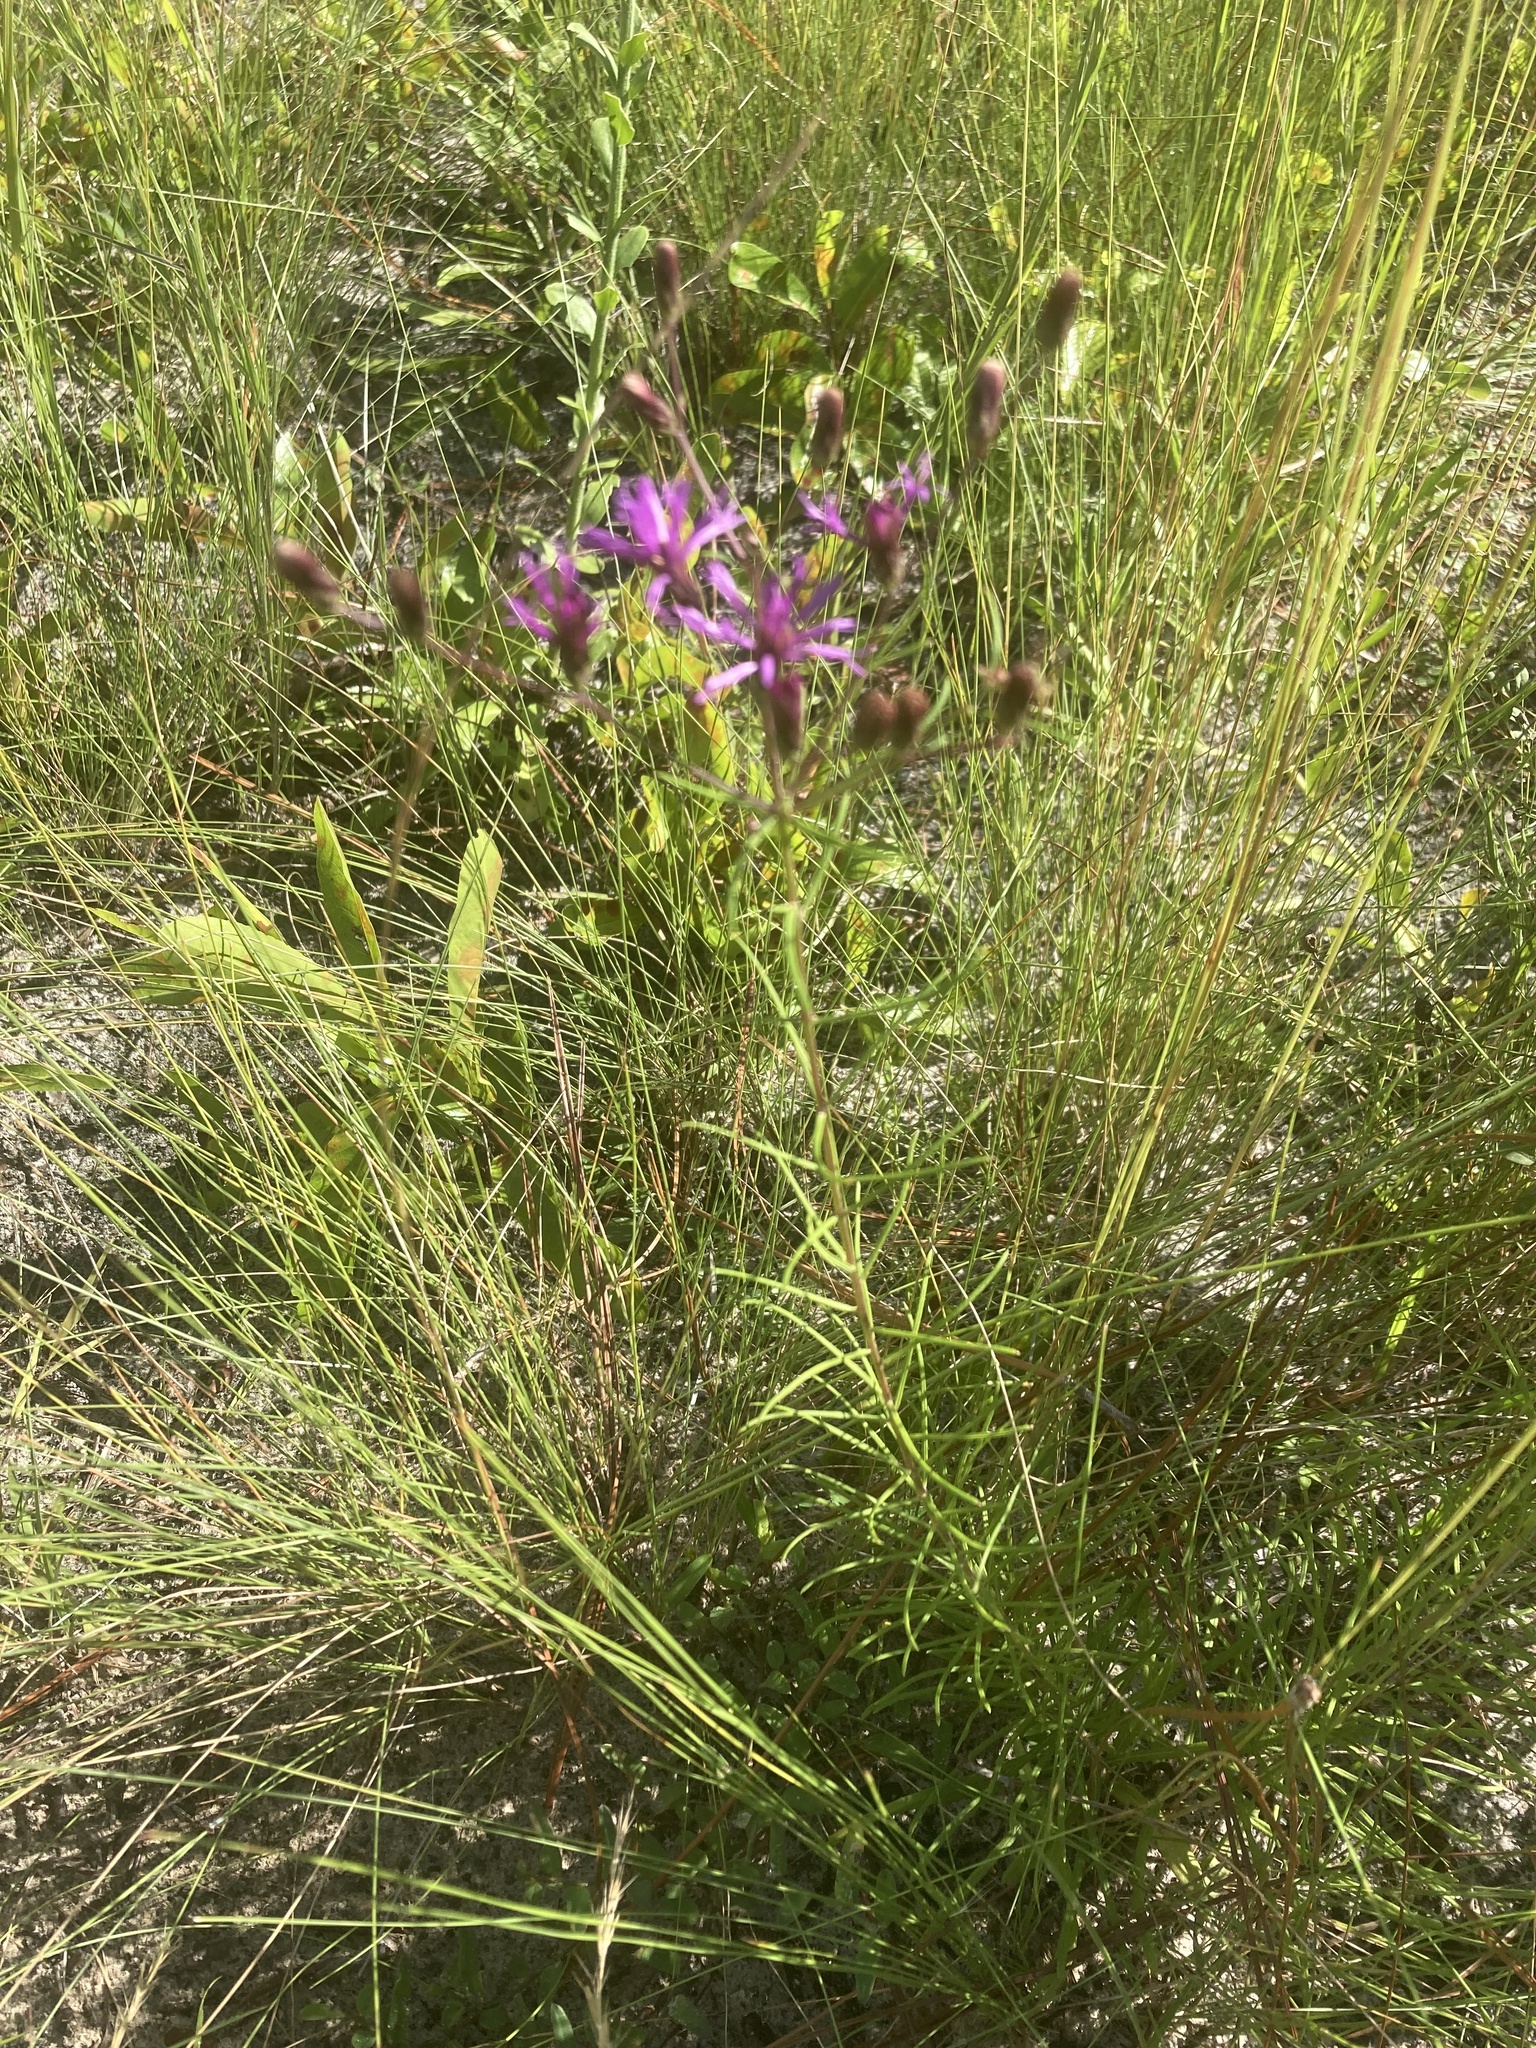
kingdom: Plantae
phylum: Tracheophyta
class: Magnoliopsida
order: Asterales
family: Asteraceae
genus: Vernonia
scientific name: Vernonia angustifolia
